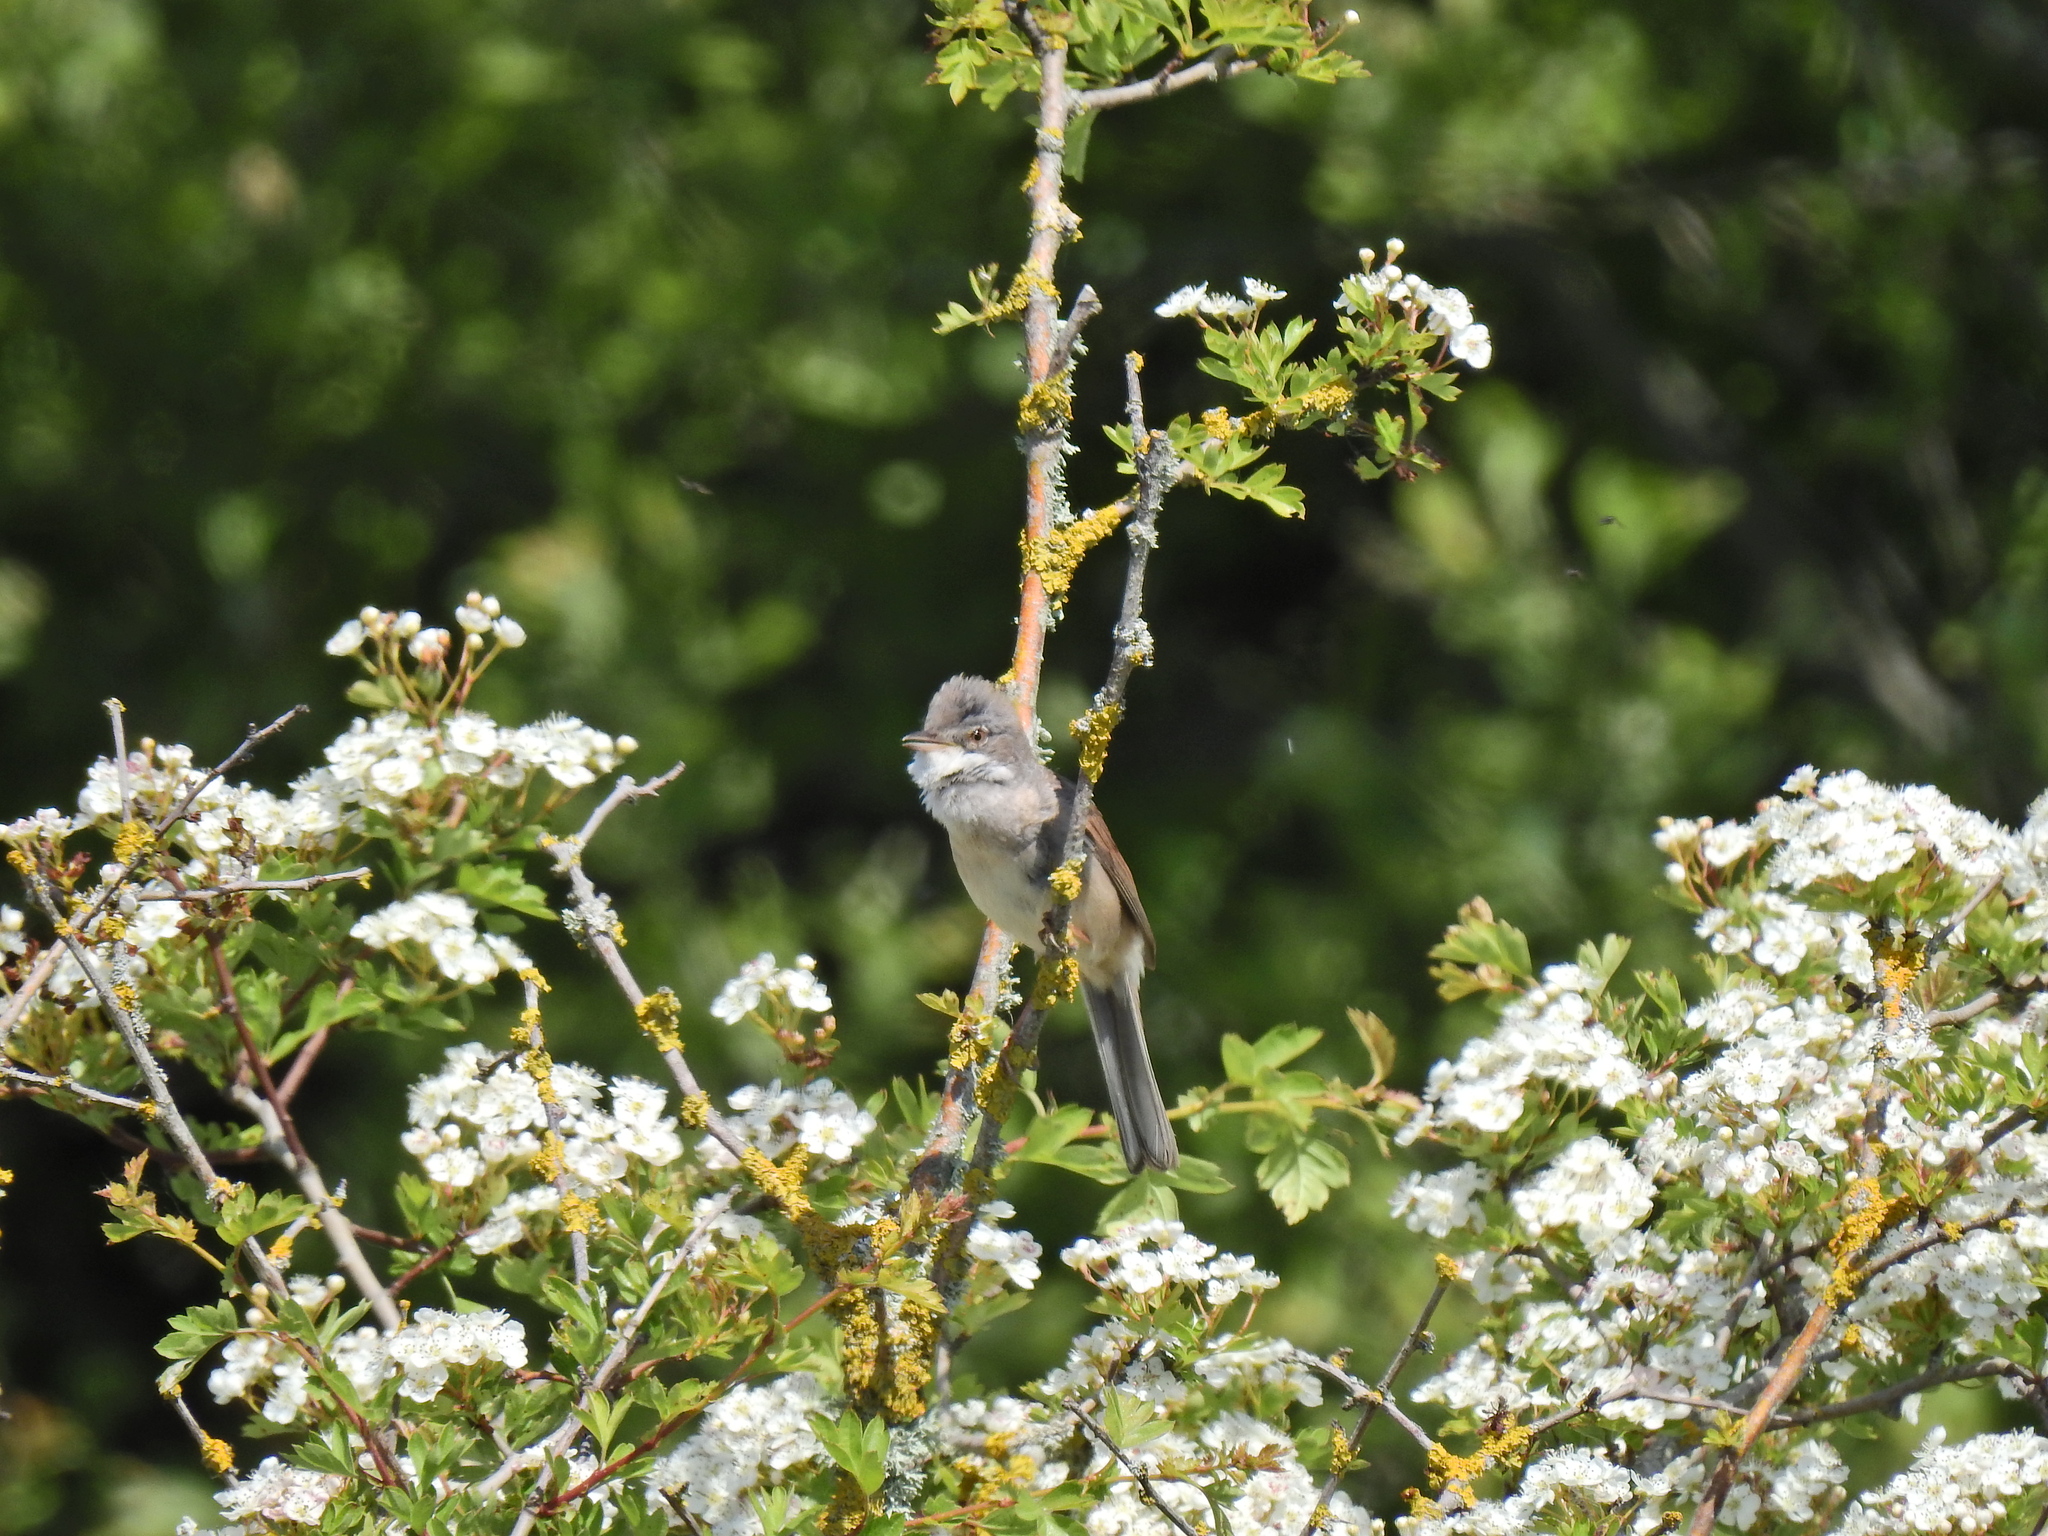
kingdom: Animalia
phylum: Chordata
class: Aves
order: Passeriformes
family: Sylviidae
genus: Sylvia
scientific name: Sylvia communis
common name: Common whitethroat
